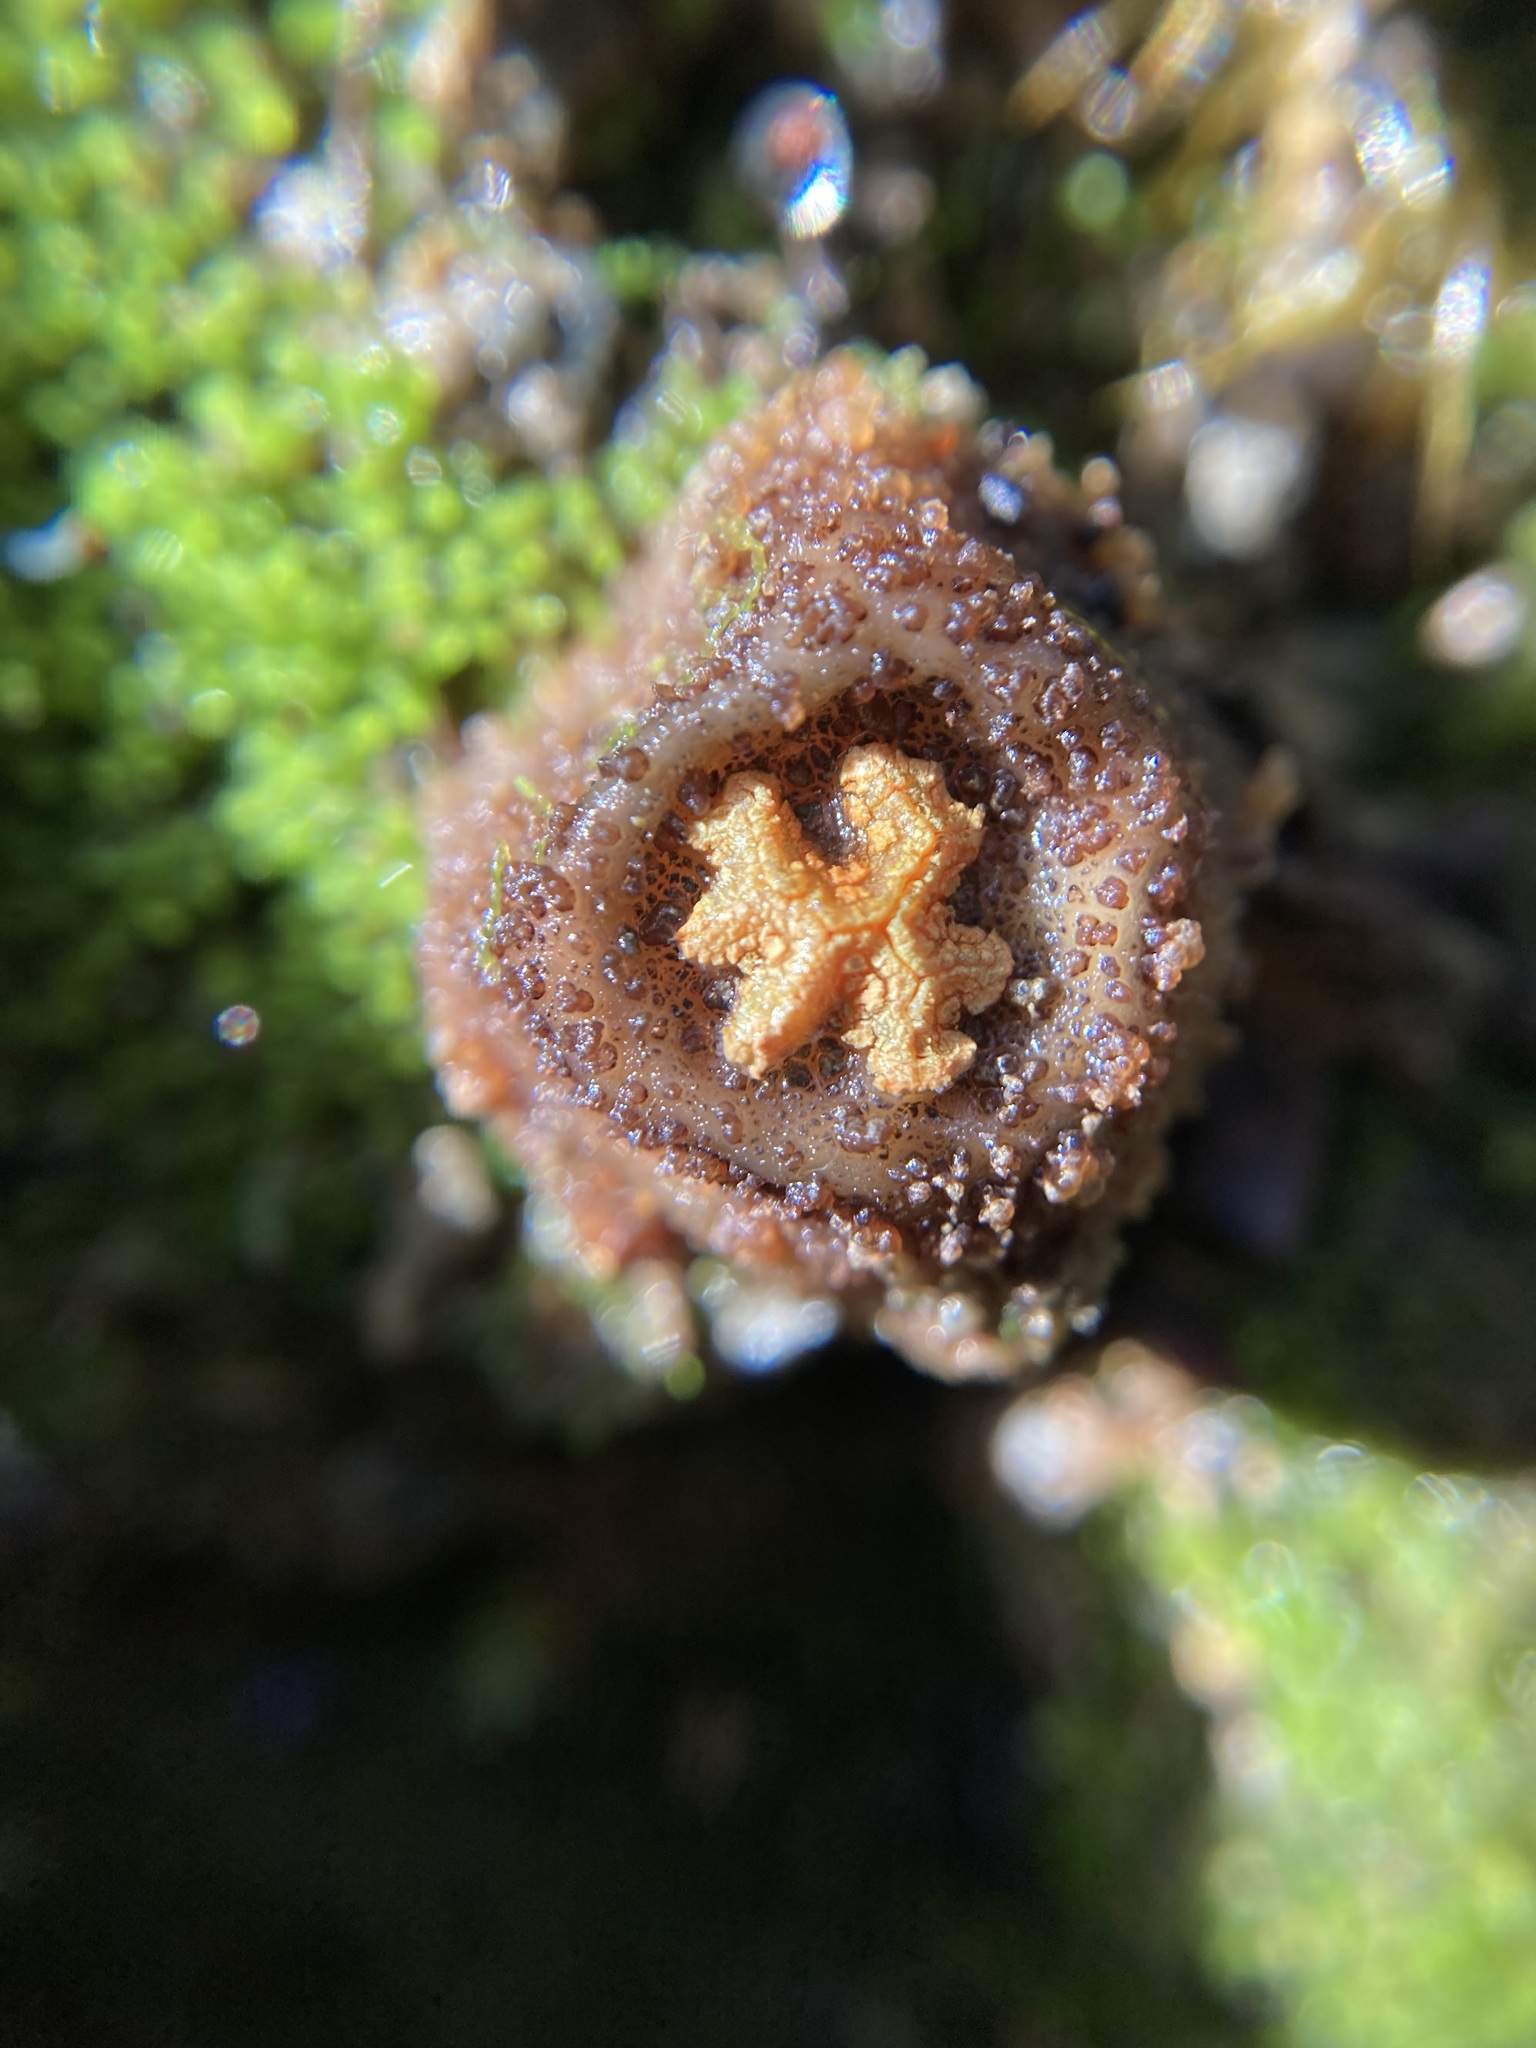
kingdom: Fungi
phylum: Basidiomycota
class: Agaricomycetes
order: Boletales
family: Calostomataceae
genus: Calostoma
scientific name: Calostoma rodwayi
